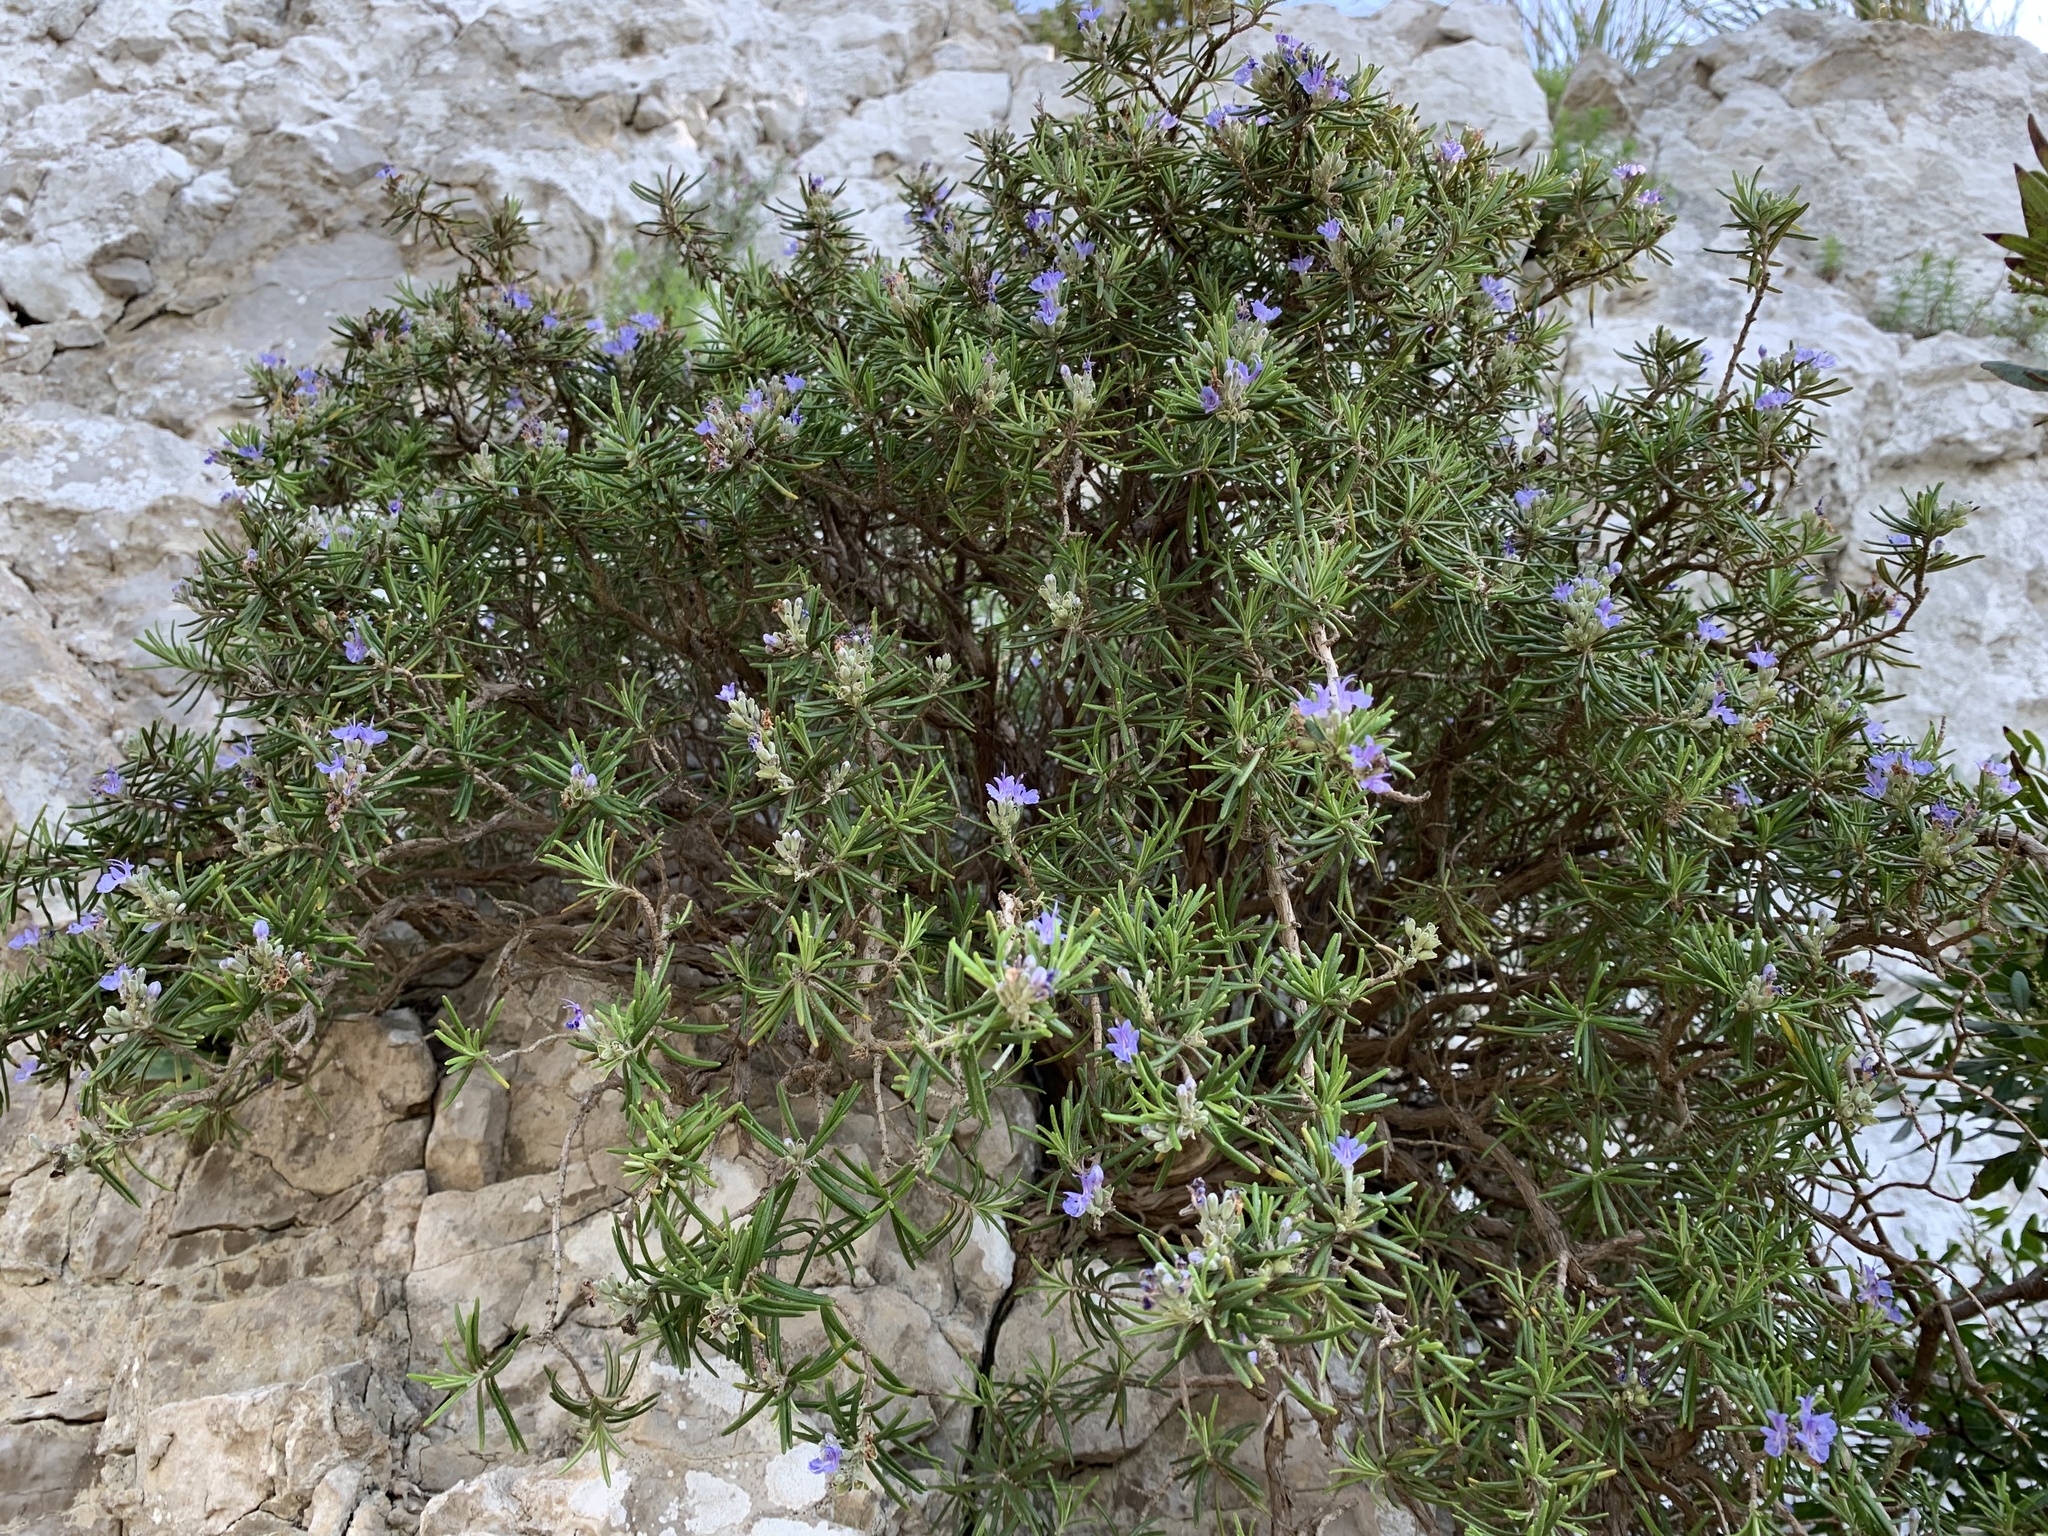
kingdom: Plantae
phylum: Tracheophyta
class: Magnoliopsida
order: Lamiales
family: Lamiaceae
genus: Salvia
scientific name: Salvia rosmarinus
